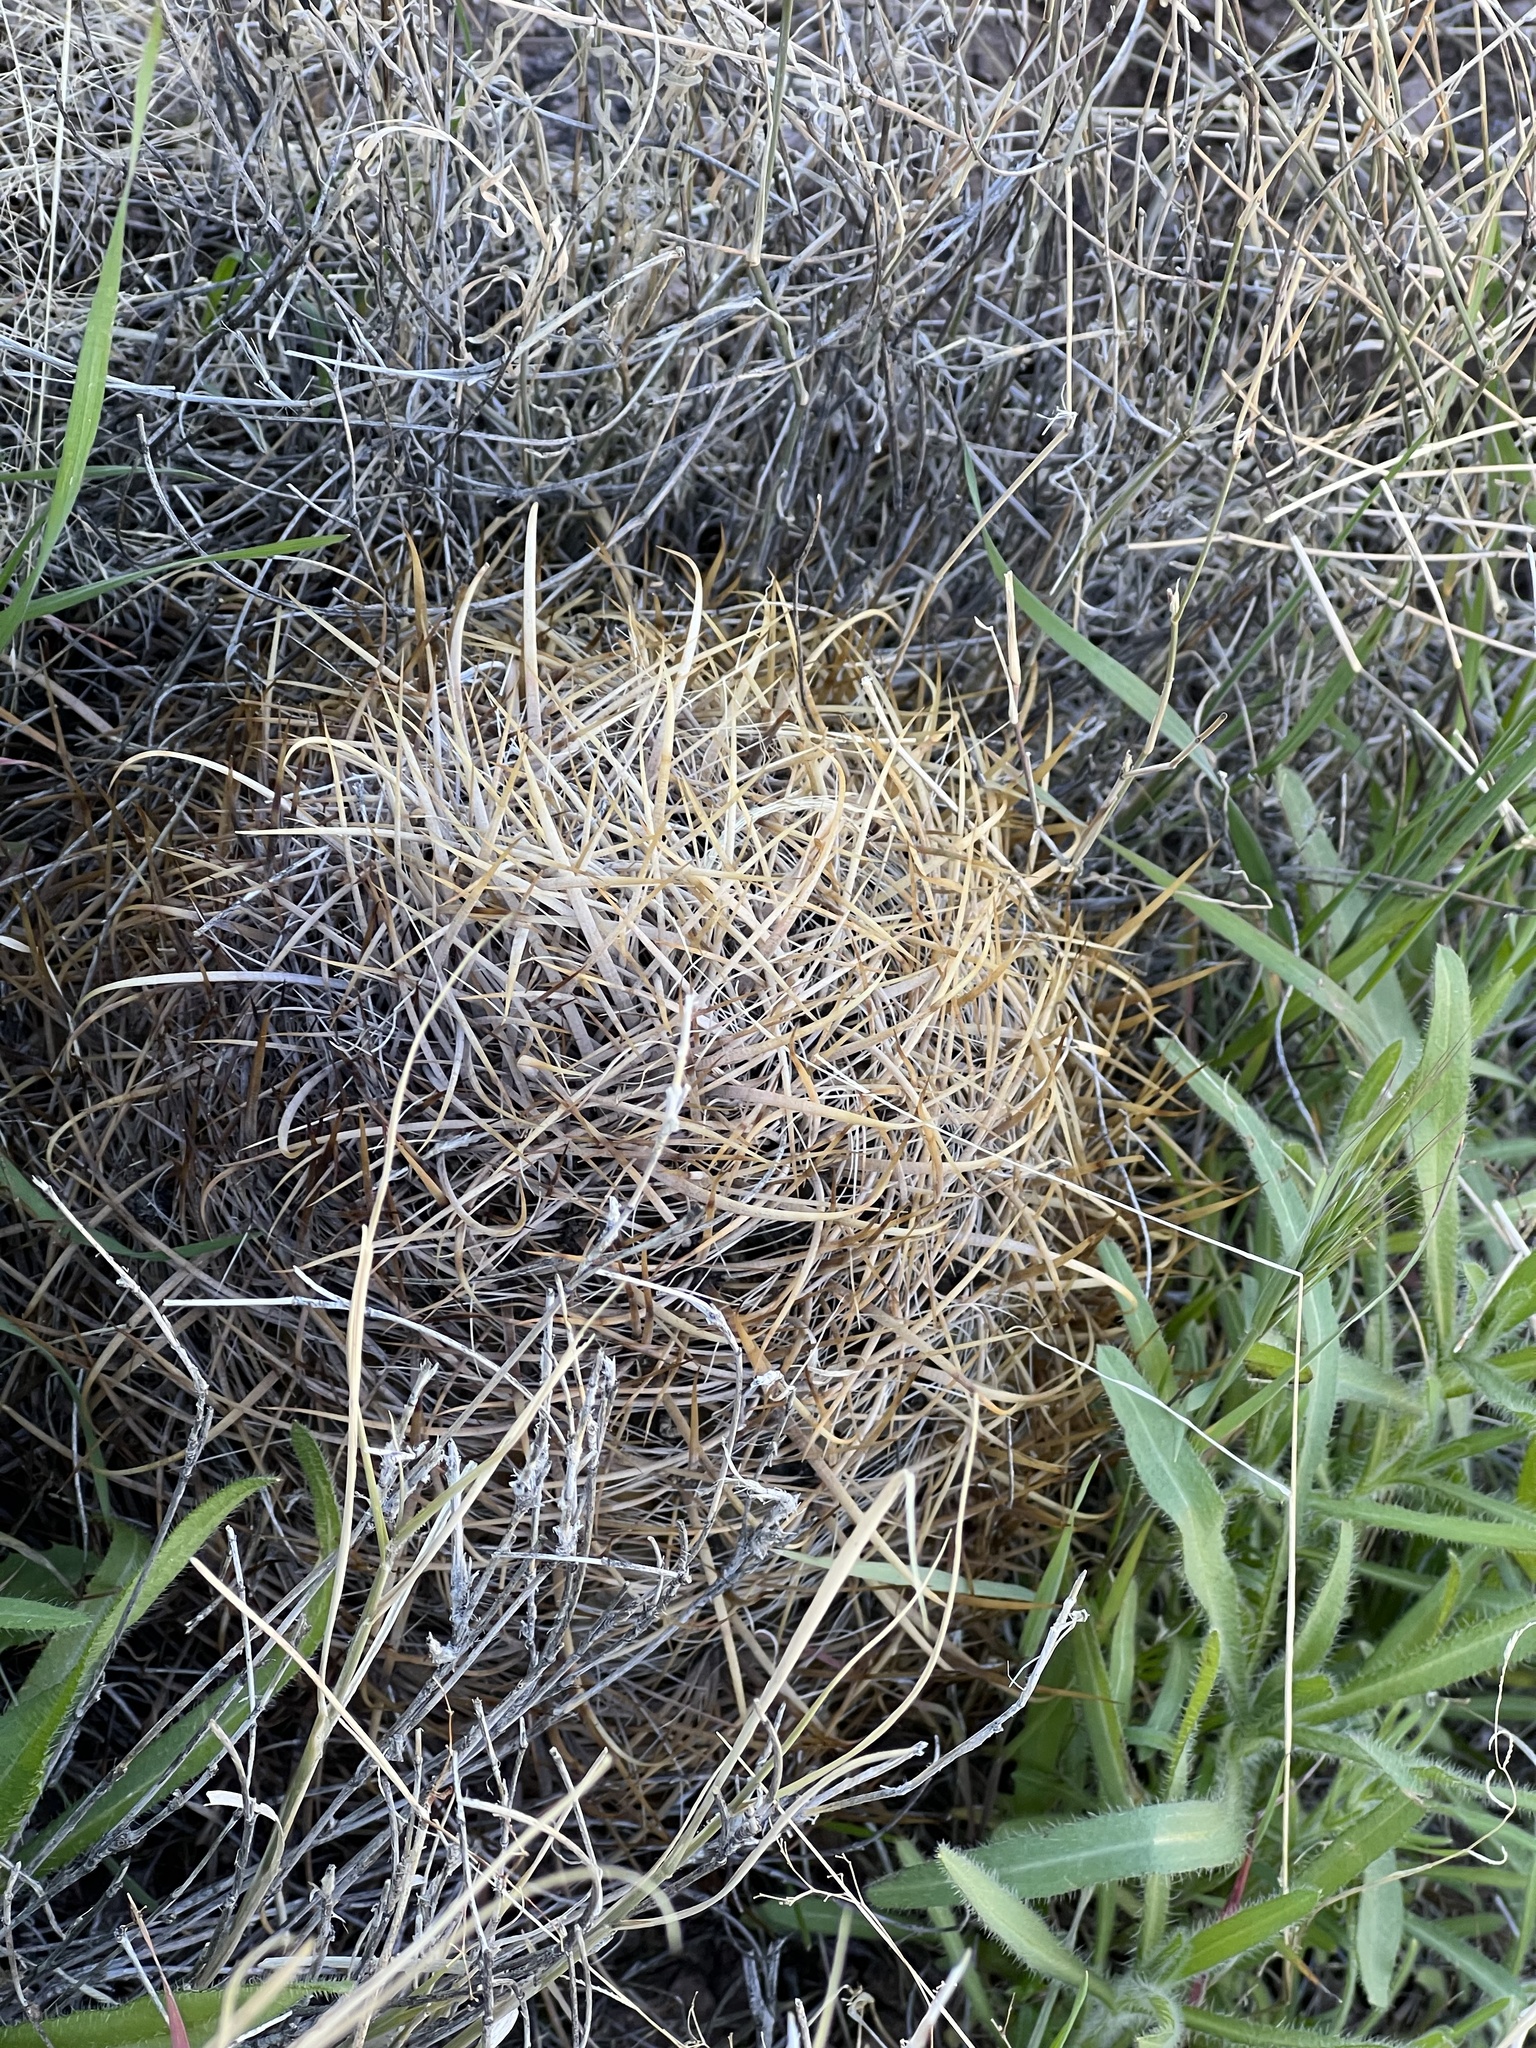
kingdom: Plantae
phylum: Tracheophyta
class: Magnoliopsida
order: Caryophyllales
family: Cactaceae
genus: Ferocactus
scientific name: Ferocactus cylindraceus
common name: California barrel cactus
